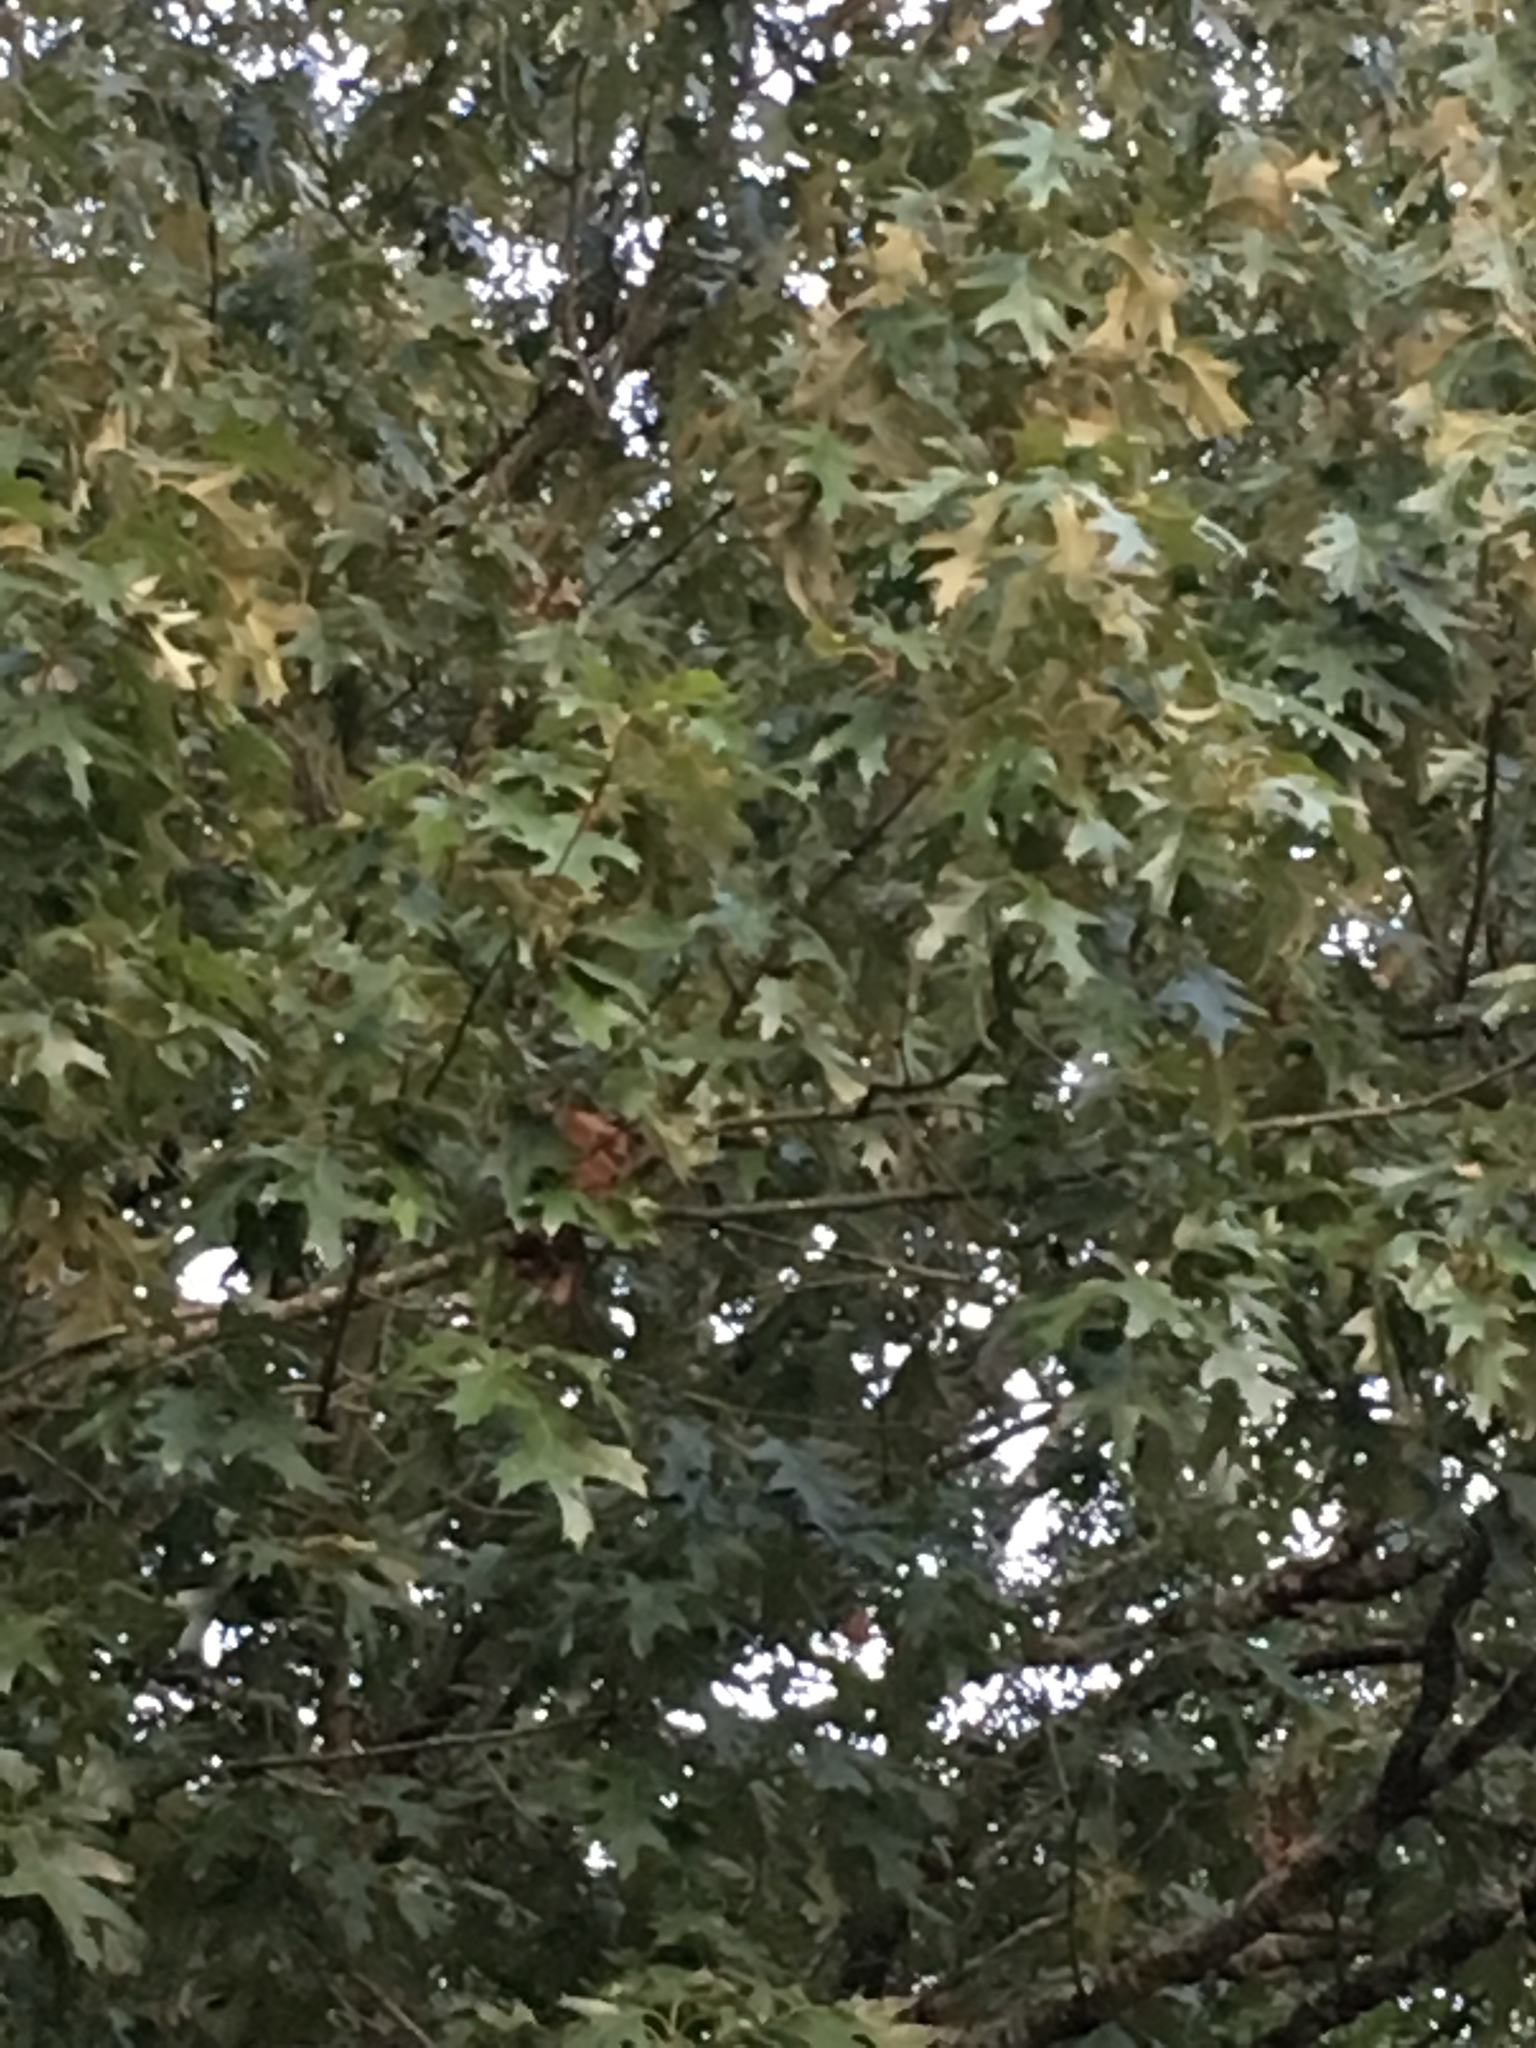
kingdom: Plantae
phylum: Tracheophyta
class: Magnoliopsida
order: Fagales
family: Fagaceae
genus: Quercus
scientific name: Quercus pagoda
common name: Cherrybark oak
